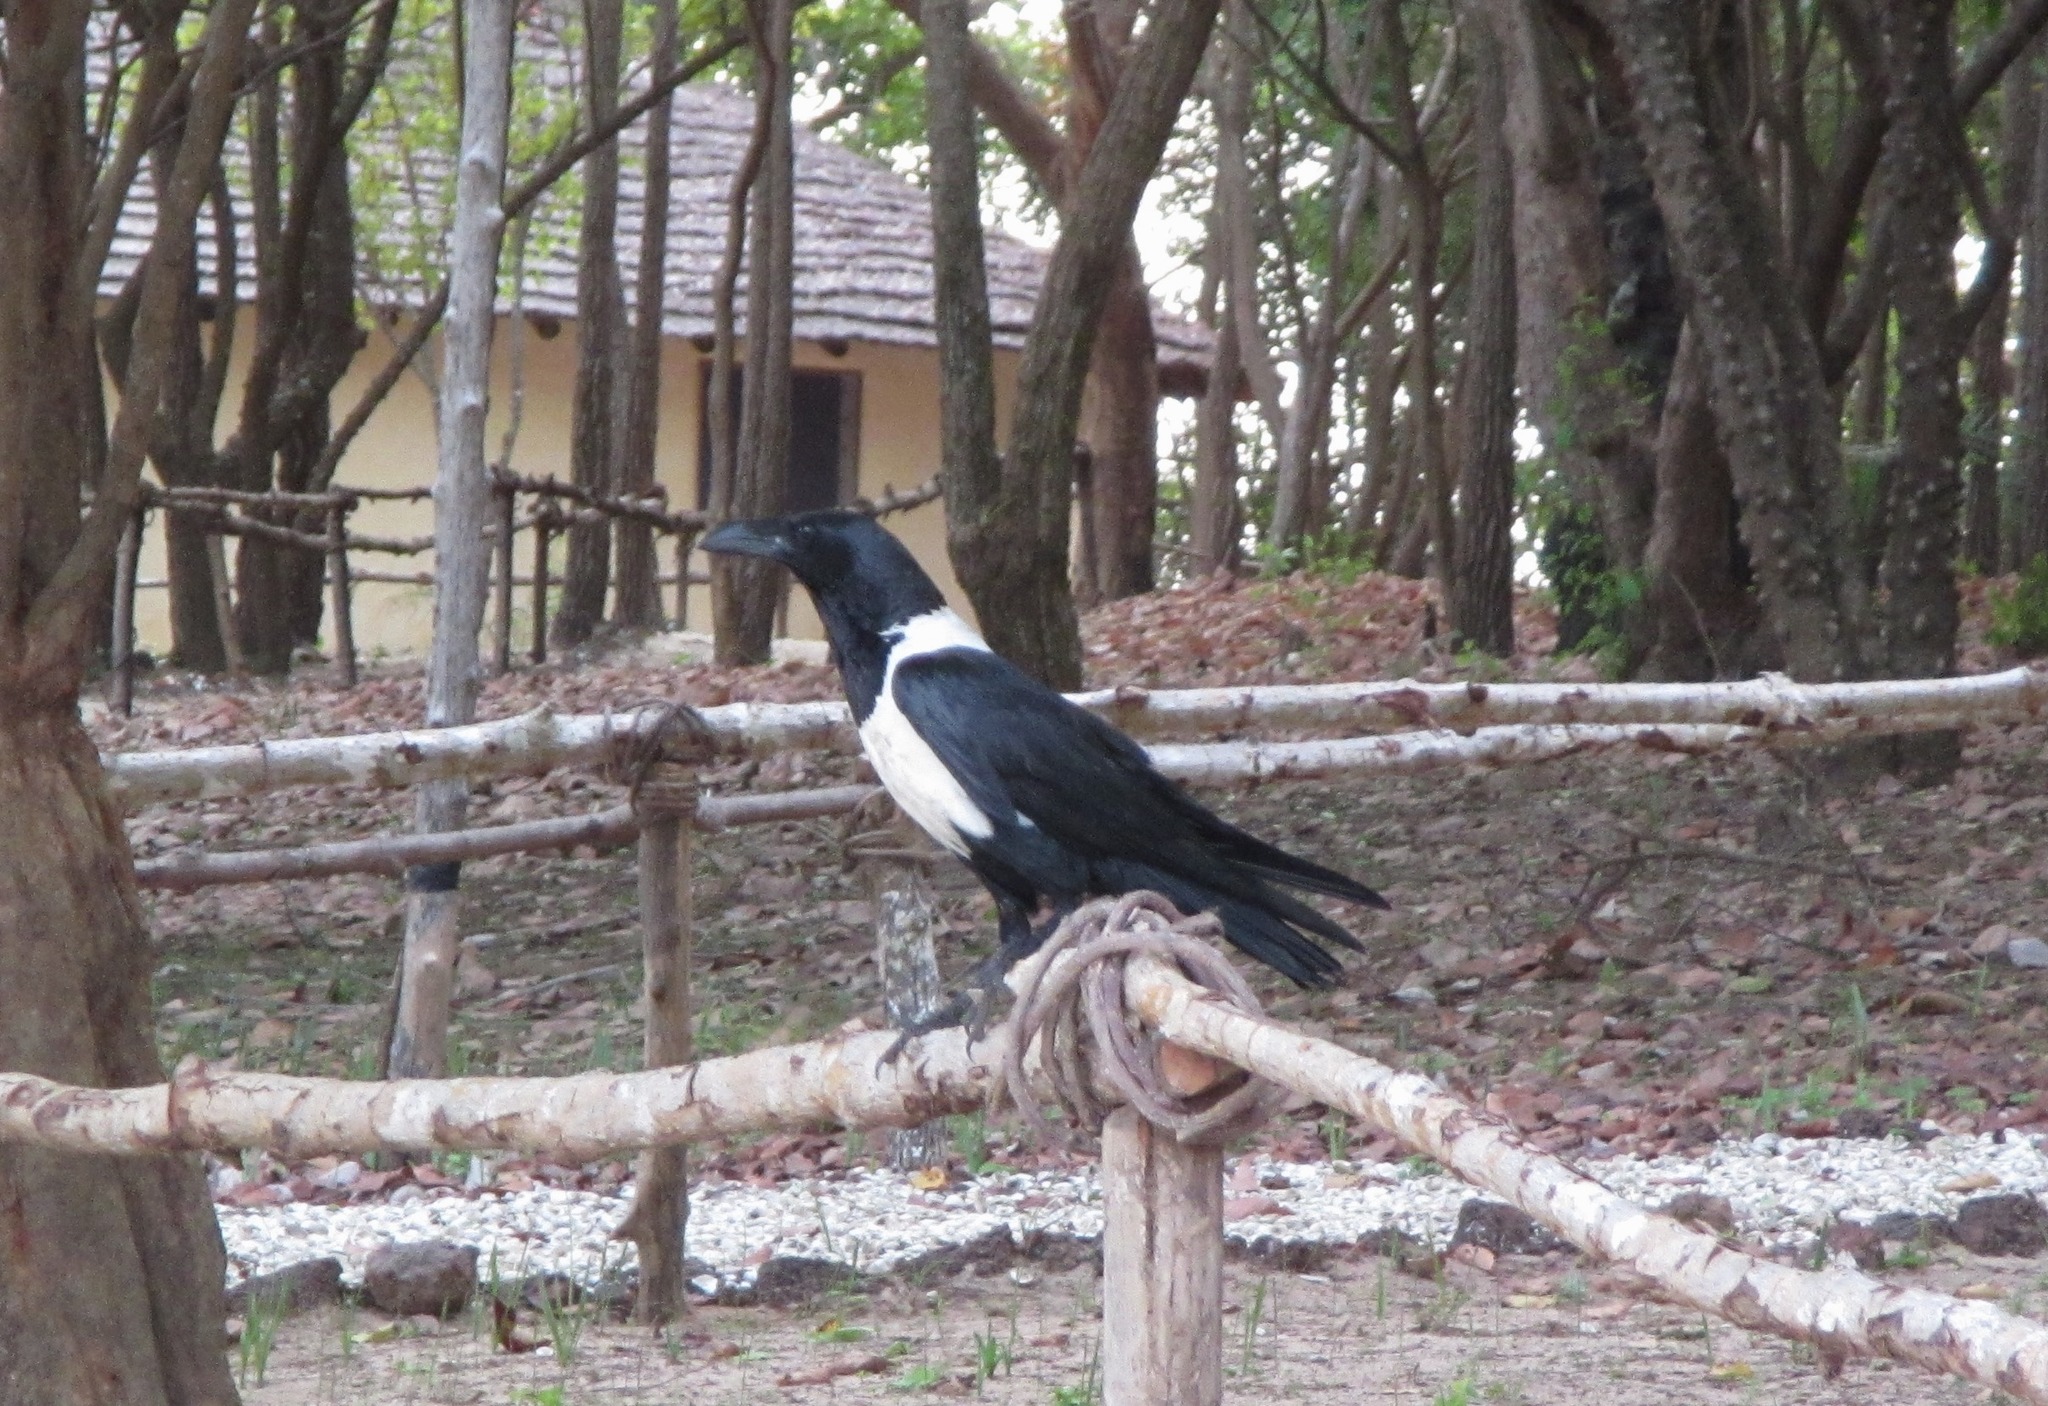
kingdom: Animalia
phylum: Chordata
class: Aves
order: Passeriformes
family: Corvidae
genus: Corvus
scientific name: Corvus albus
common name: Pied crow
